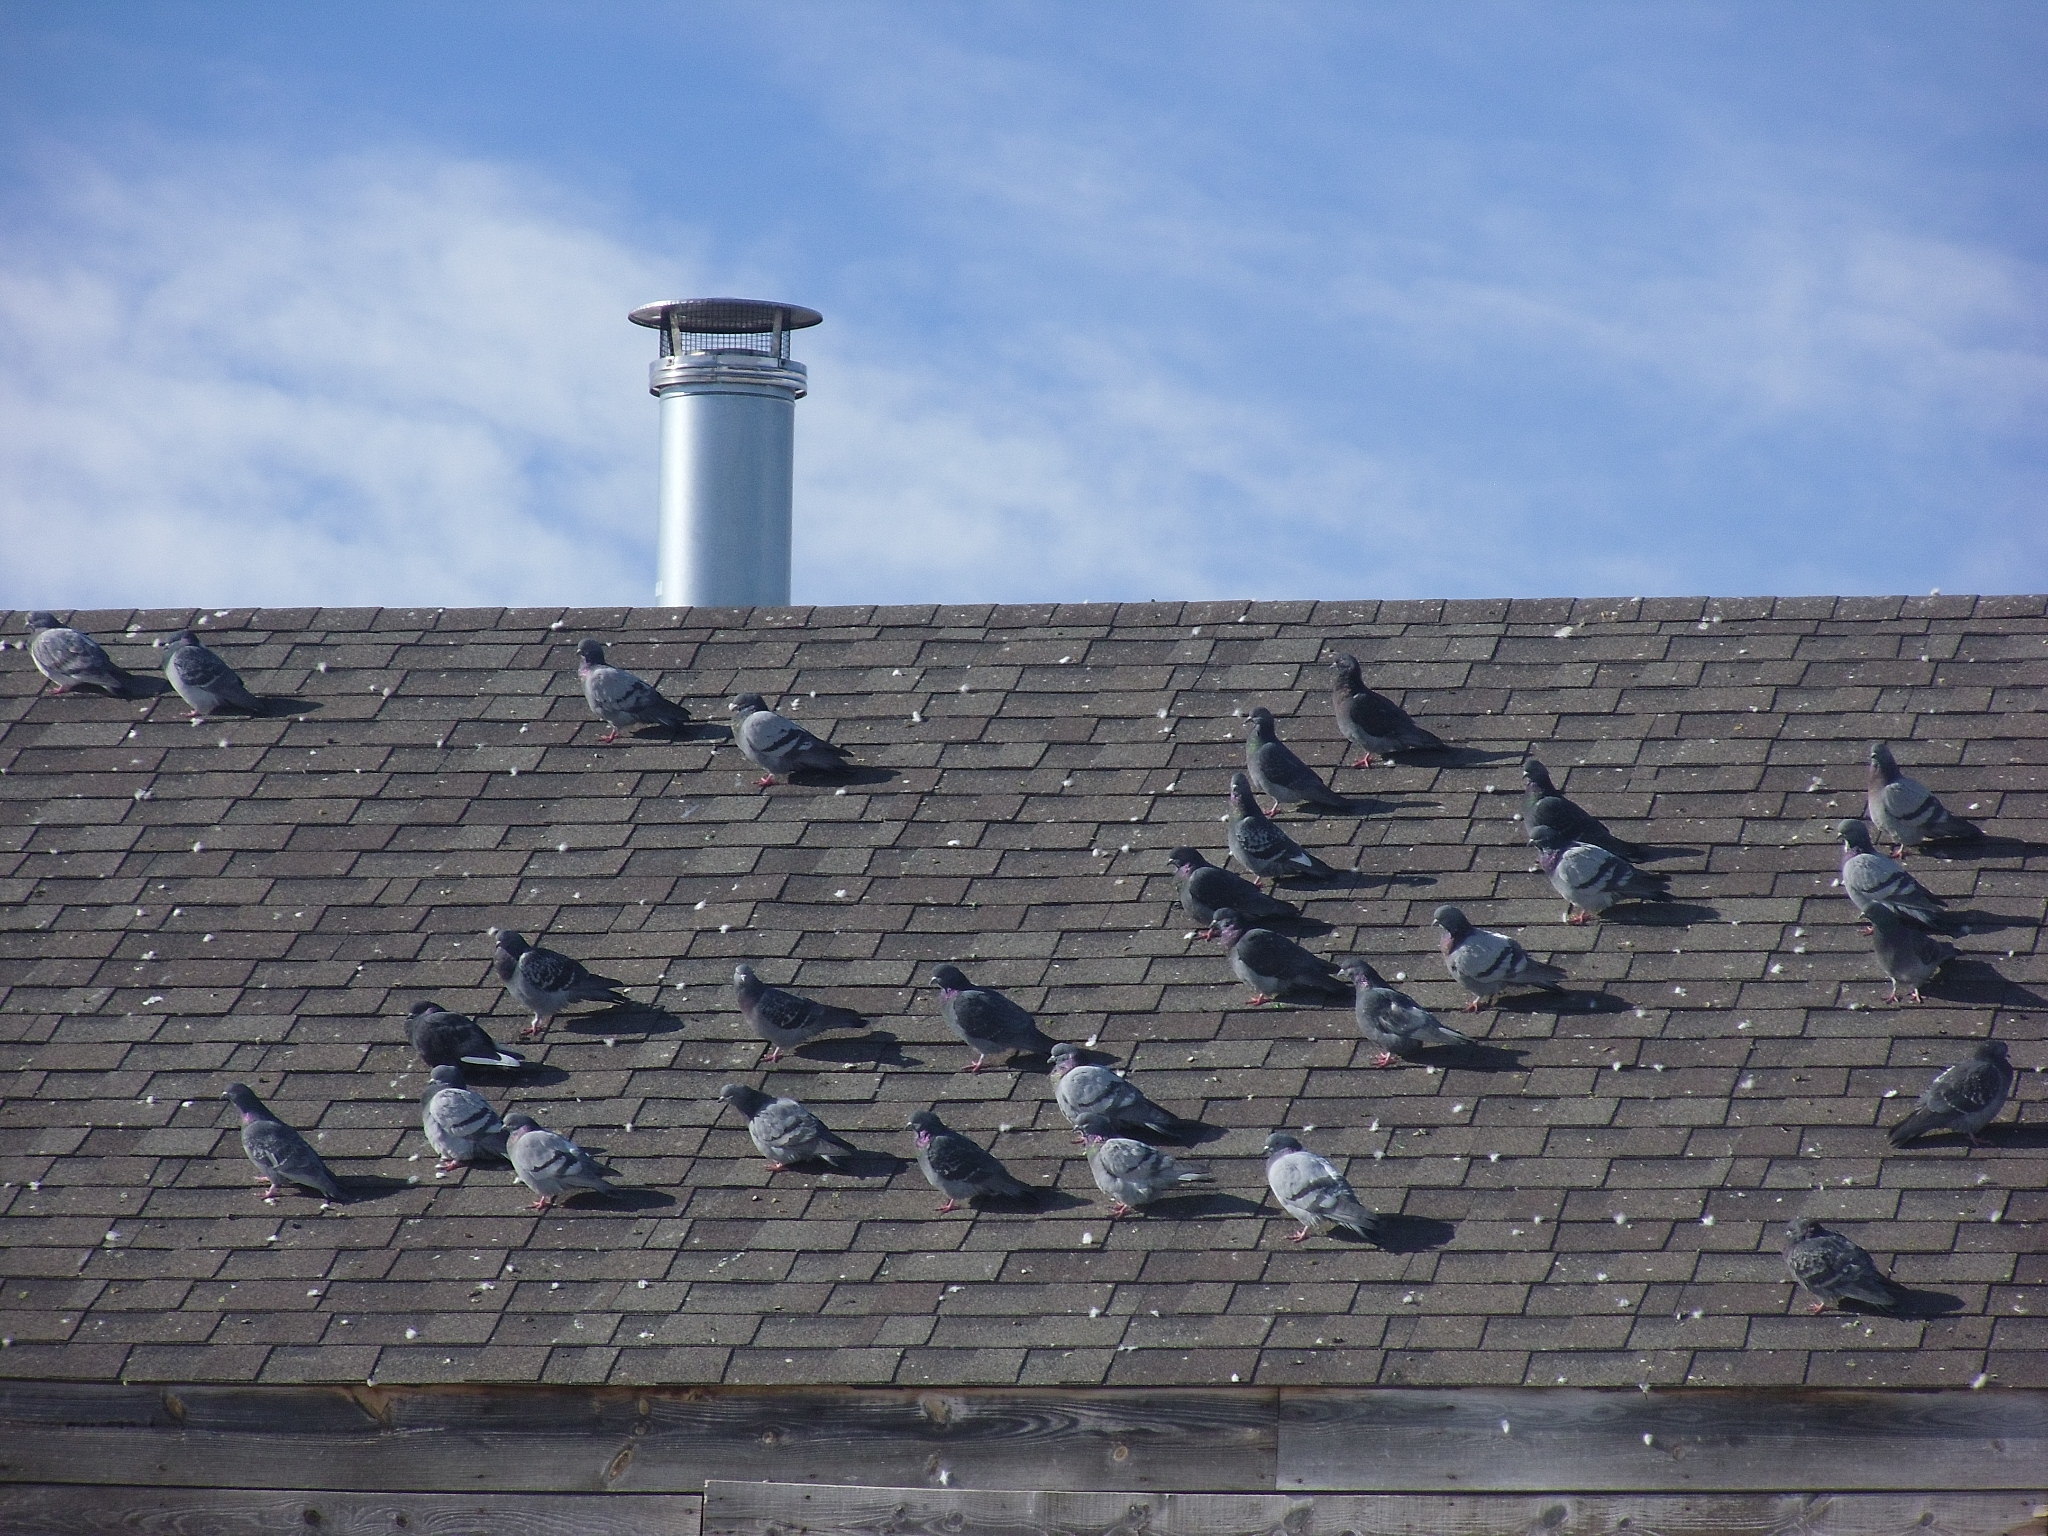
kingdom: Animalia
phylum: Chordata
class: Aves
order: Columbiformes
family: Columbidae
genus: Columba
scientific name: Columba livia
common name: Rock pigeon
